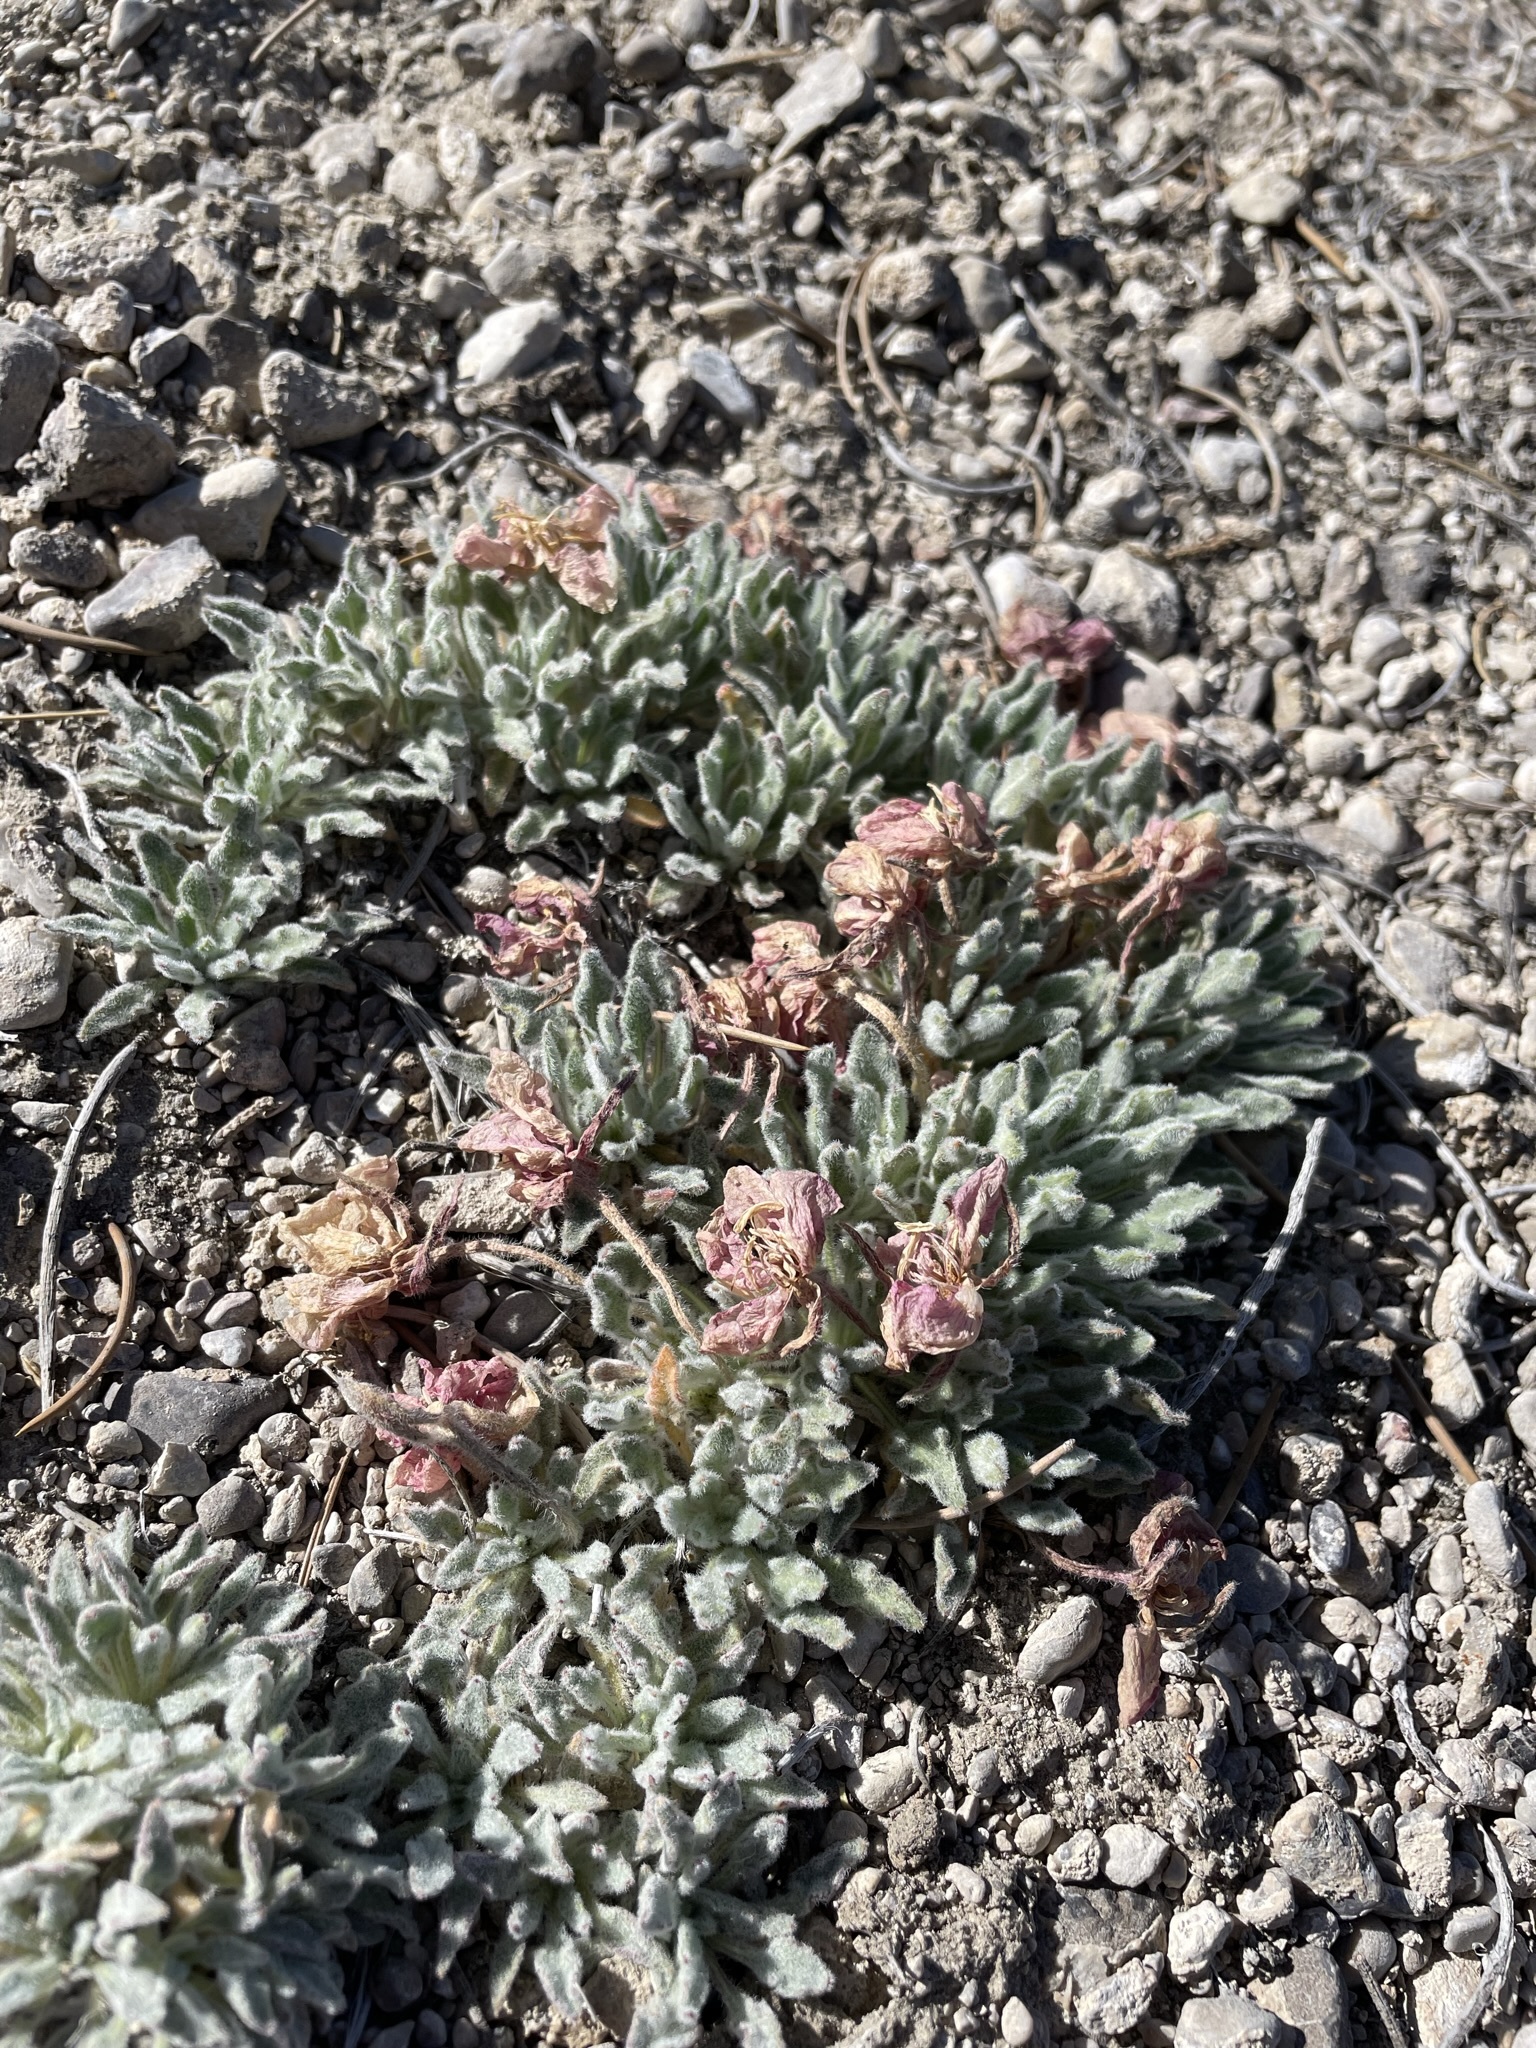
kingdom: Plantae
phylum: Tracheophyta
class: Magnoliopsida
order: Myrtales
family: Onagraceae
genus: Oenothera
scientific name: Oenothera cespitosa
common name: Tufted evening-primrose
